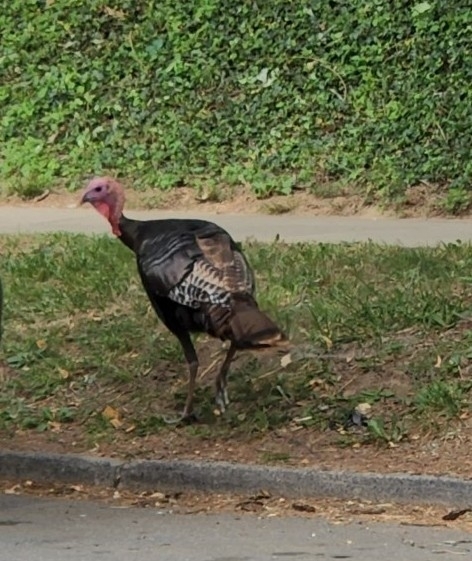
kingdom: Animalia
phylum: Chordata
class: Aves
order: Galliformes
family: Phasianidae
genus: Meleagris
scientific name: Meleagris gallopavo
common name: Wild turkey
